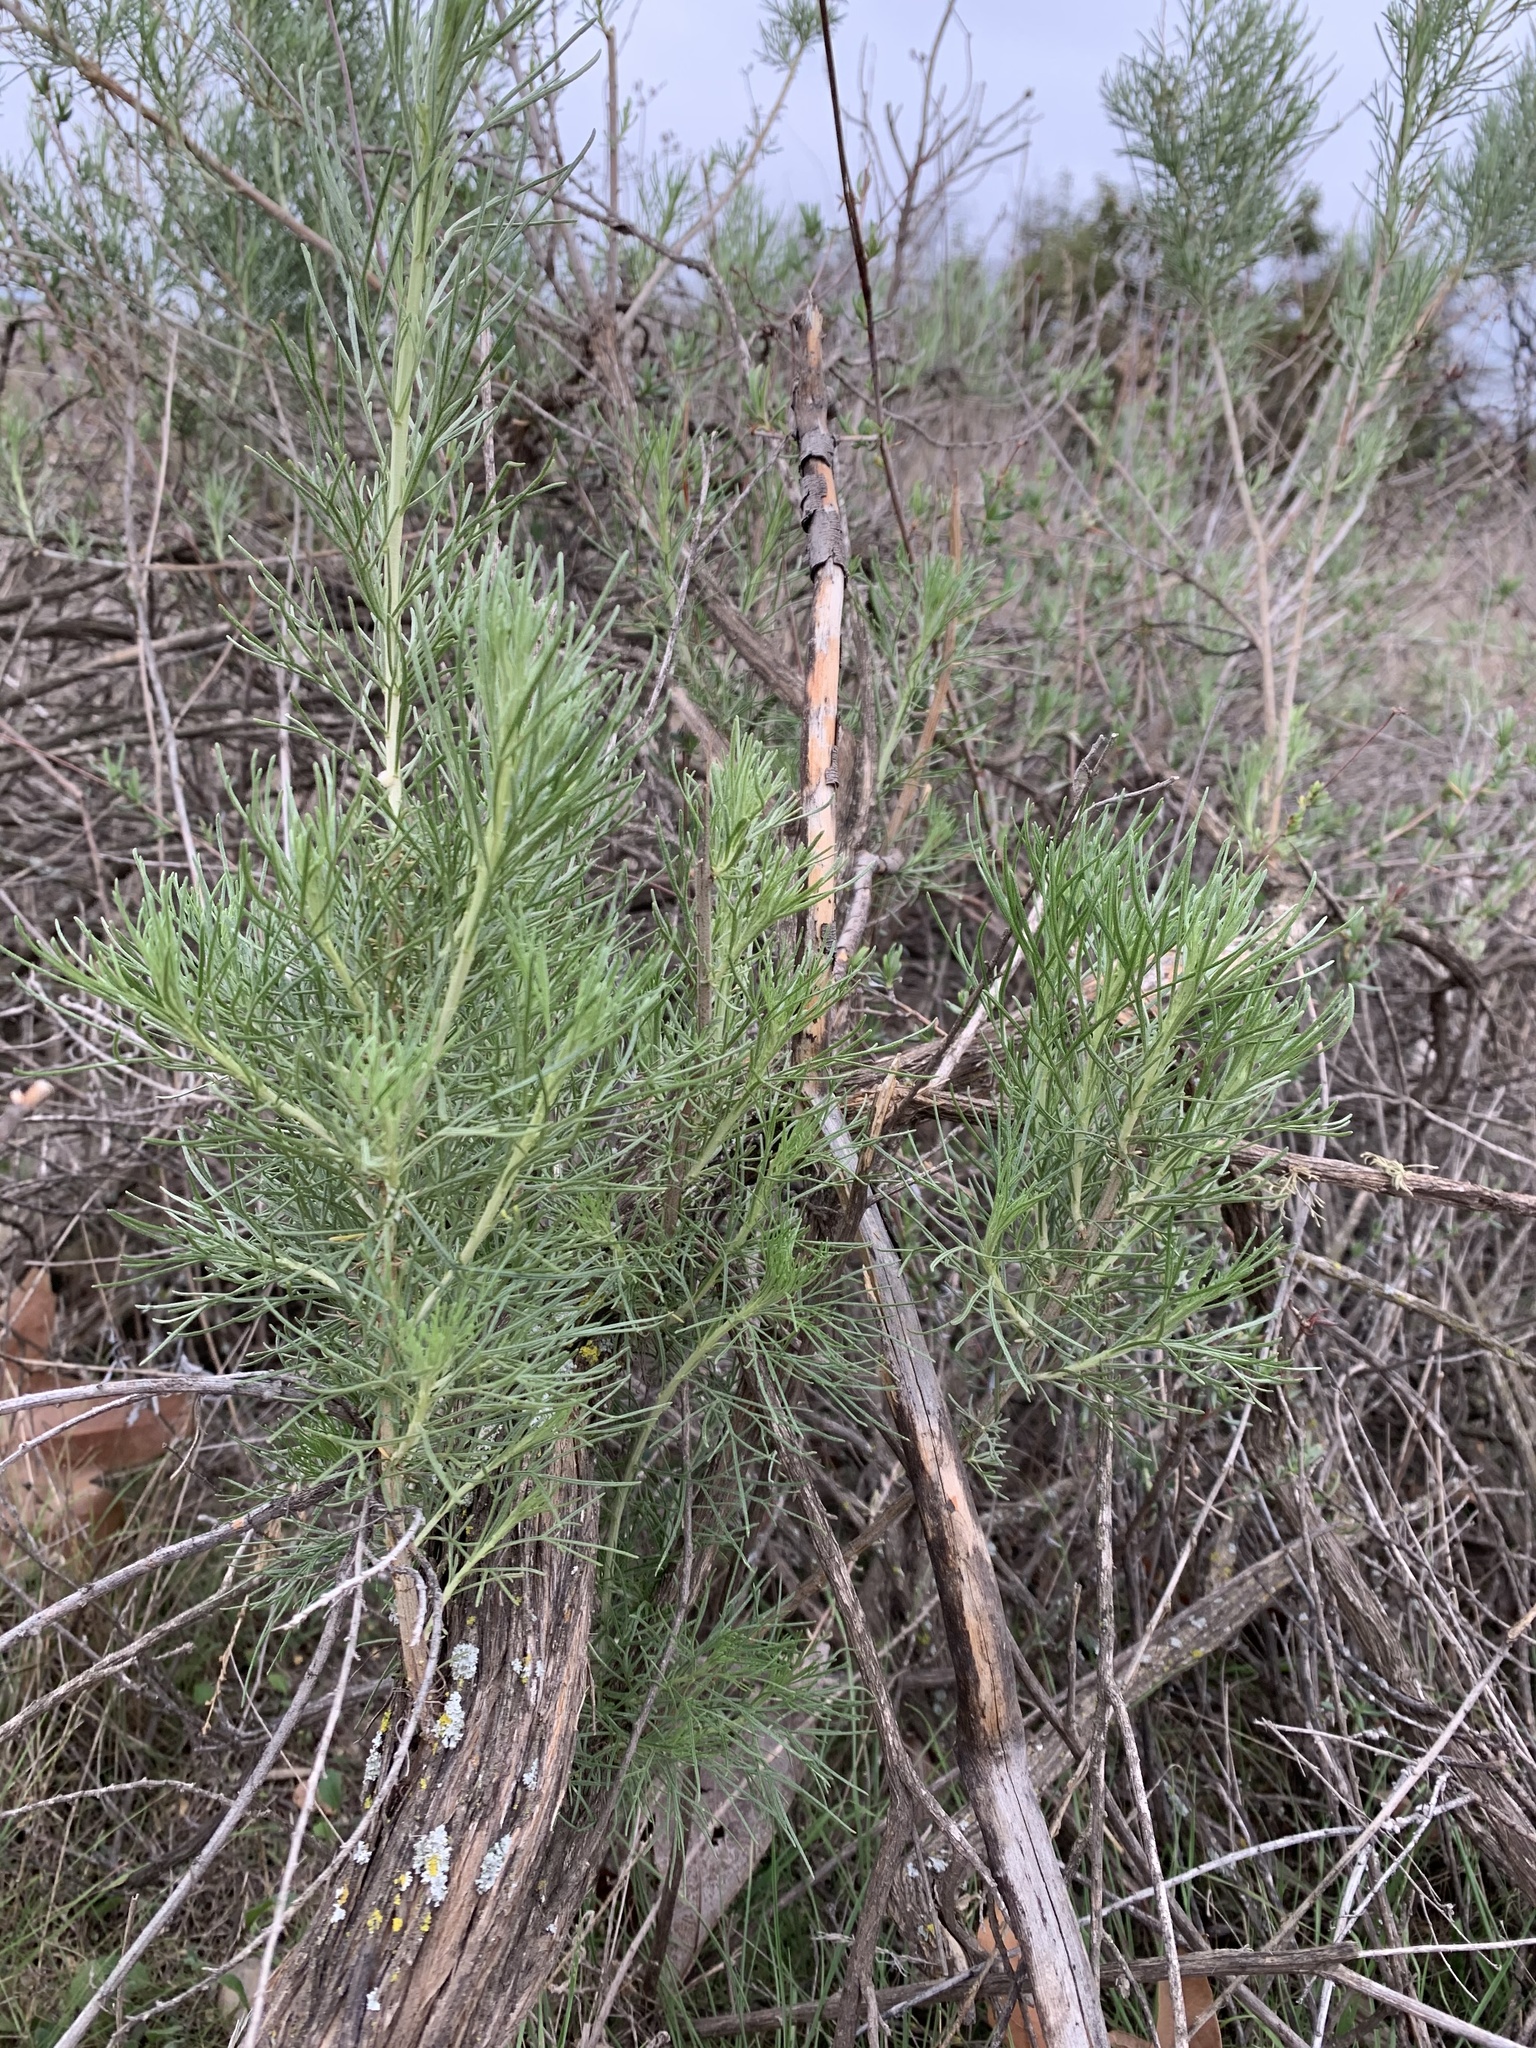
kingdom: Plantae
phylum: Tracheophyta
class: Magnoliopsida
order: Asterales
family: Asteraceae
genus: Artemisia
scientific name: Artemisia californica
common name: California sagebrush
